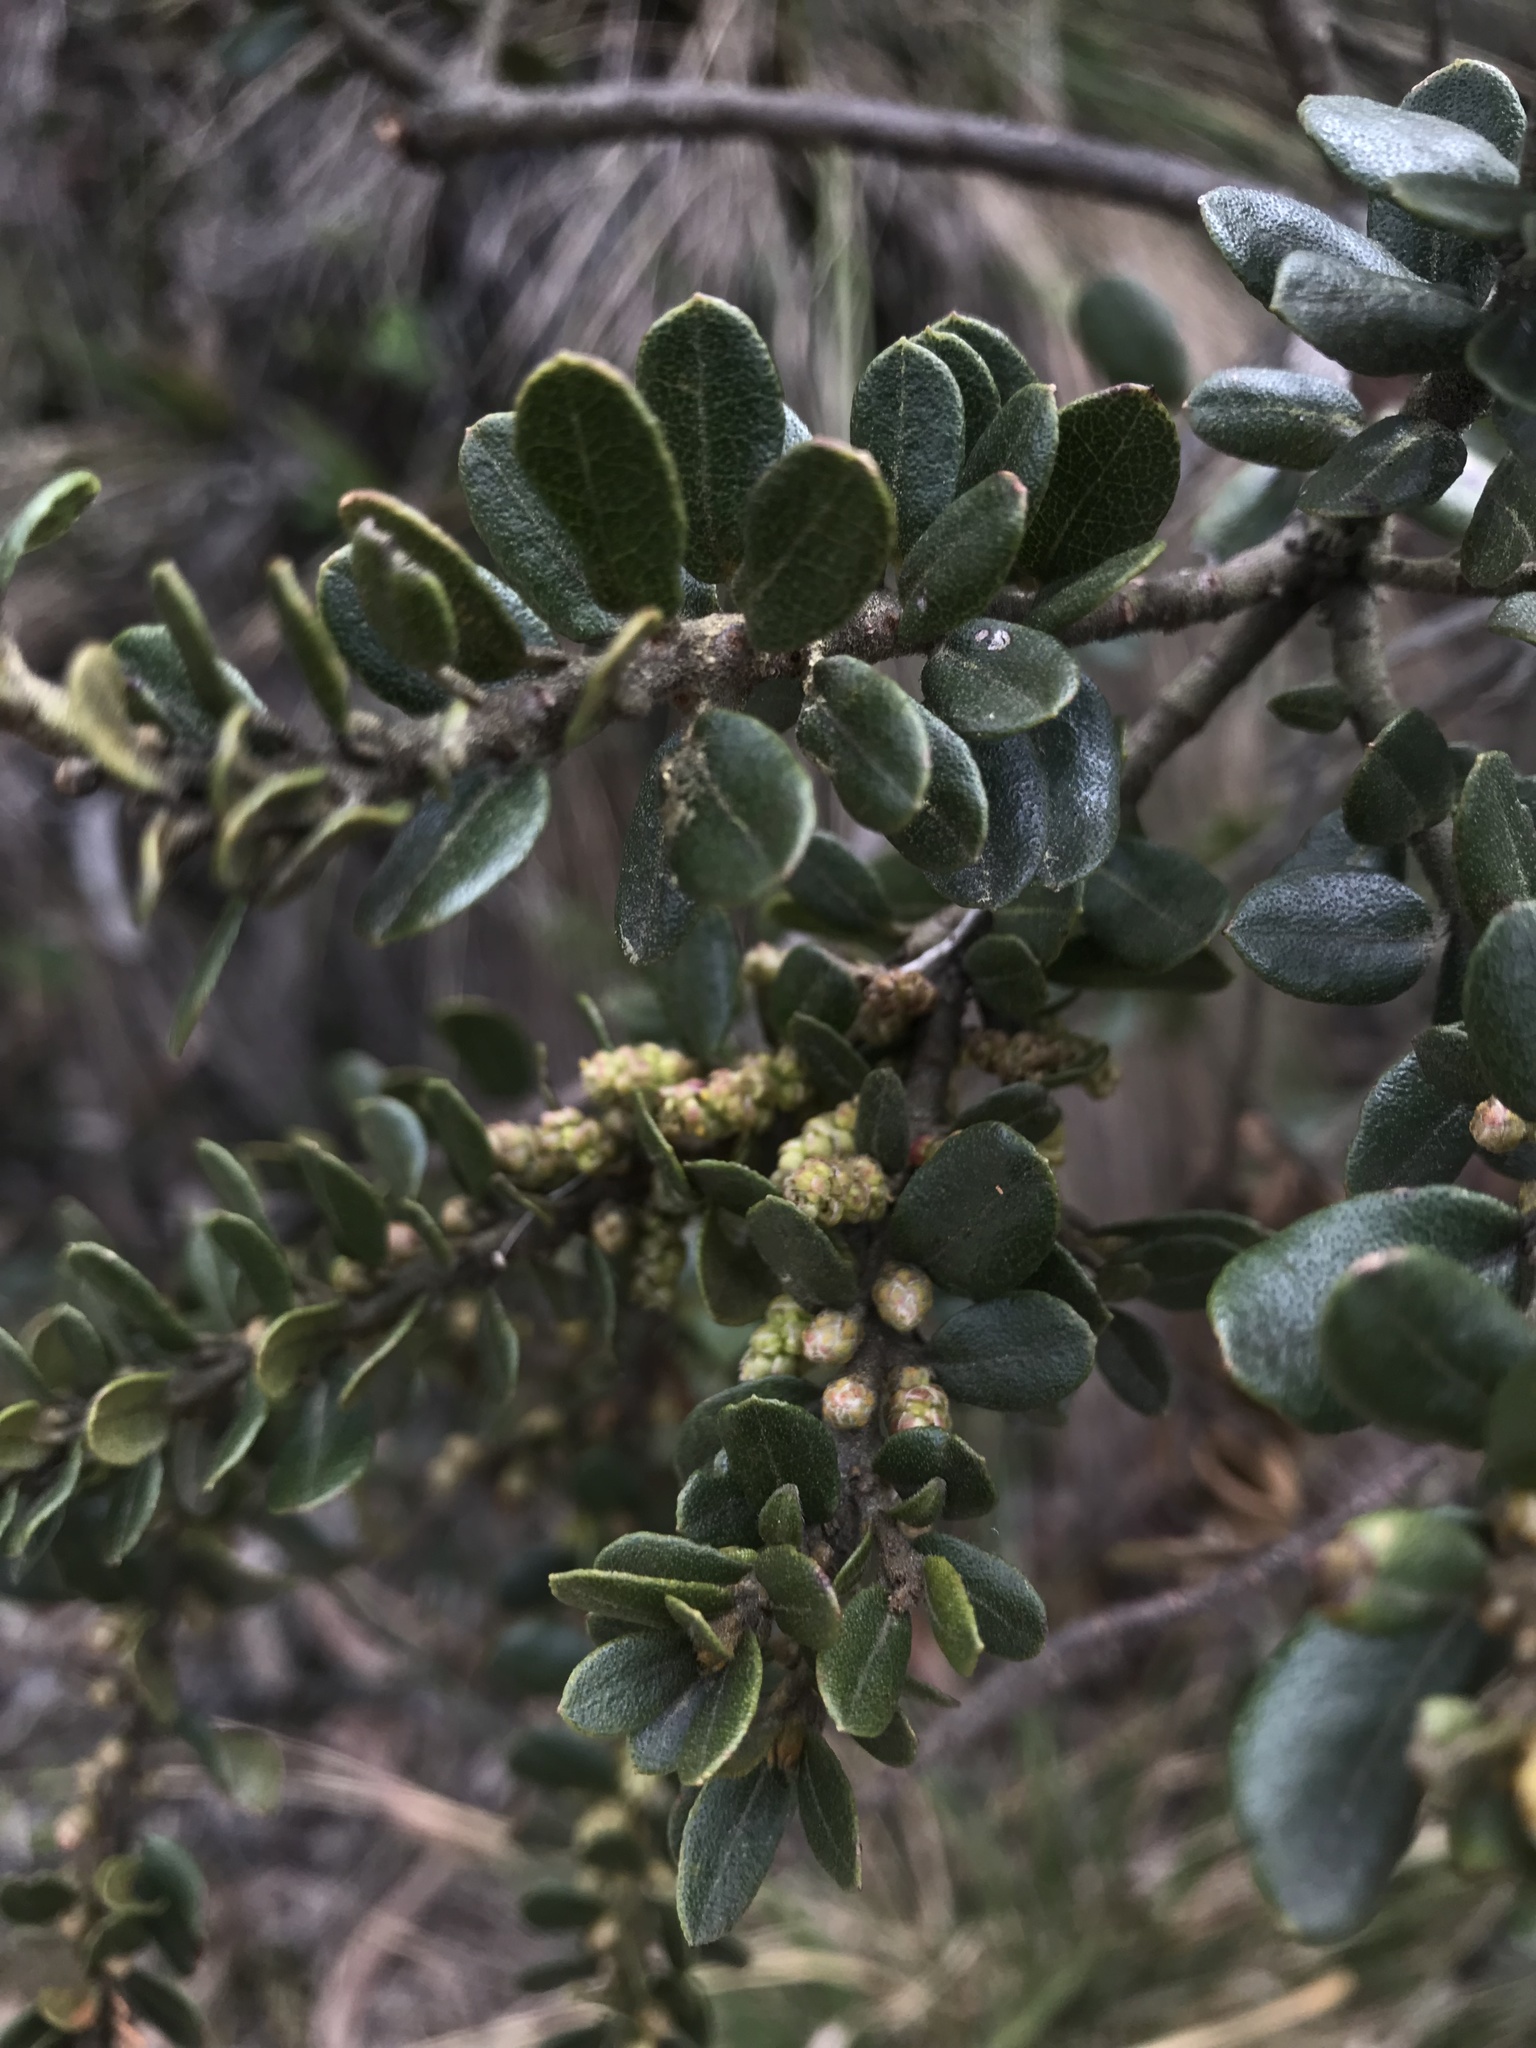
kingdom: Plantae
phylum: Tracheophyta
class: Magnoliopsida
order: Fagales
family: Myricaceae
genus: Morella
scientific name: Morella parvifolia
